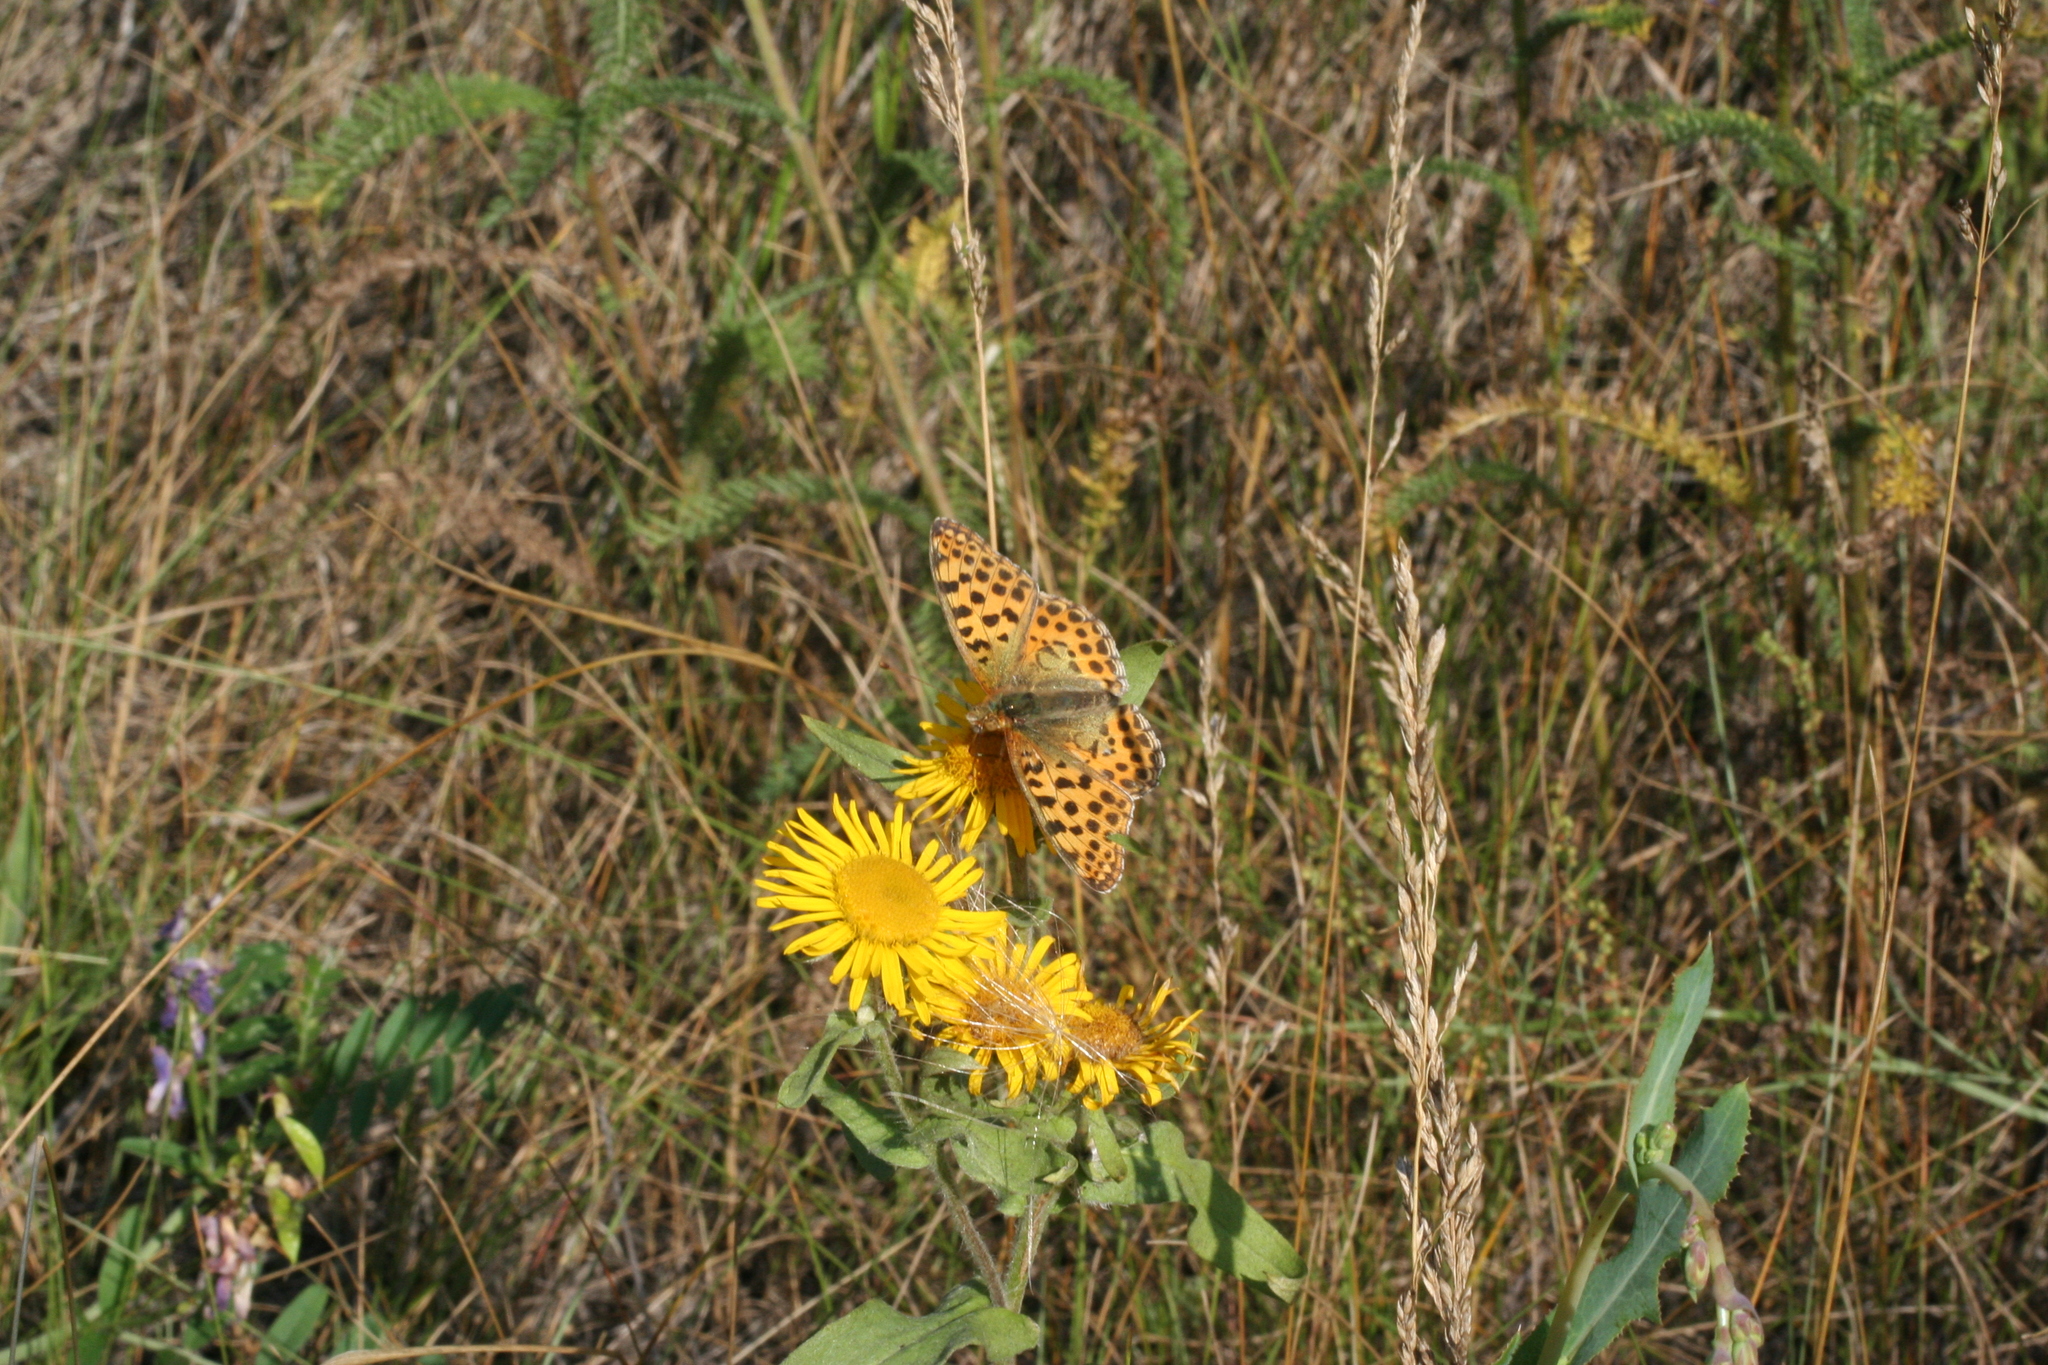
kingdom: Animalia
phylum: Arthropoda
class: Insecta
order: Lepidoptera
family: Nymphalidae
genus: Issoria
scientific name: Issoria lathonia
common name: Queen of spain fritillary
